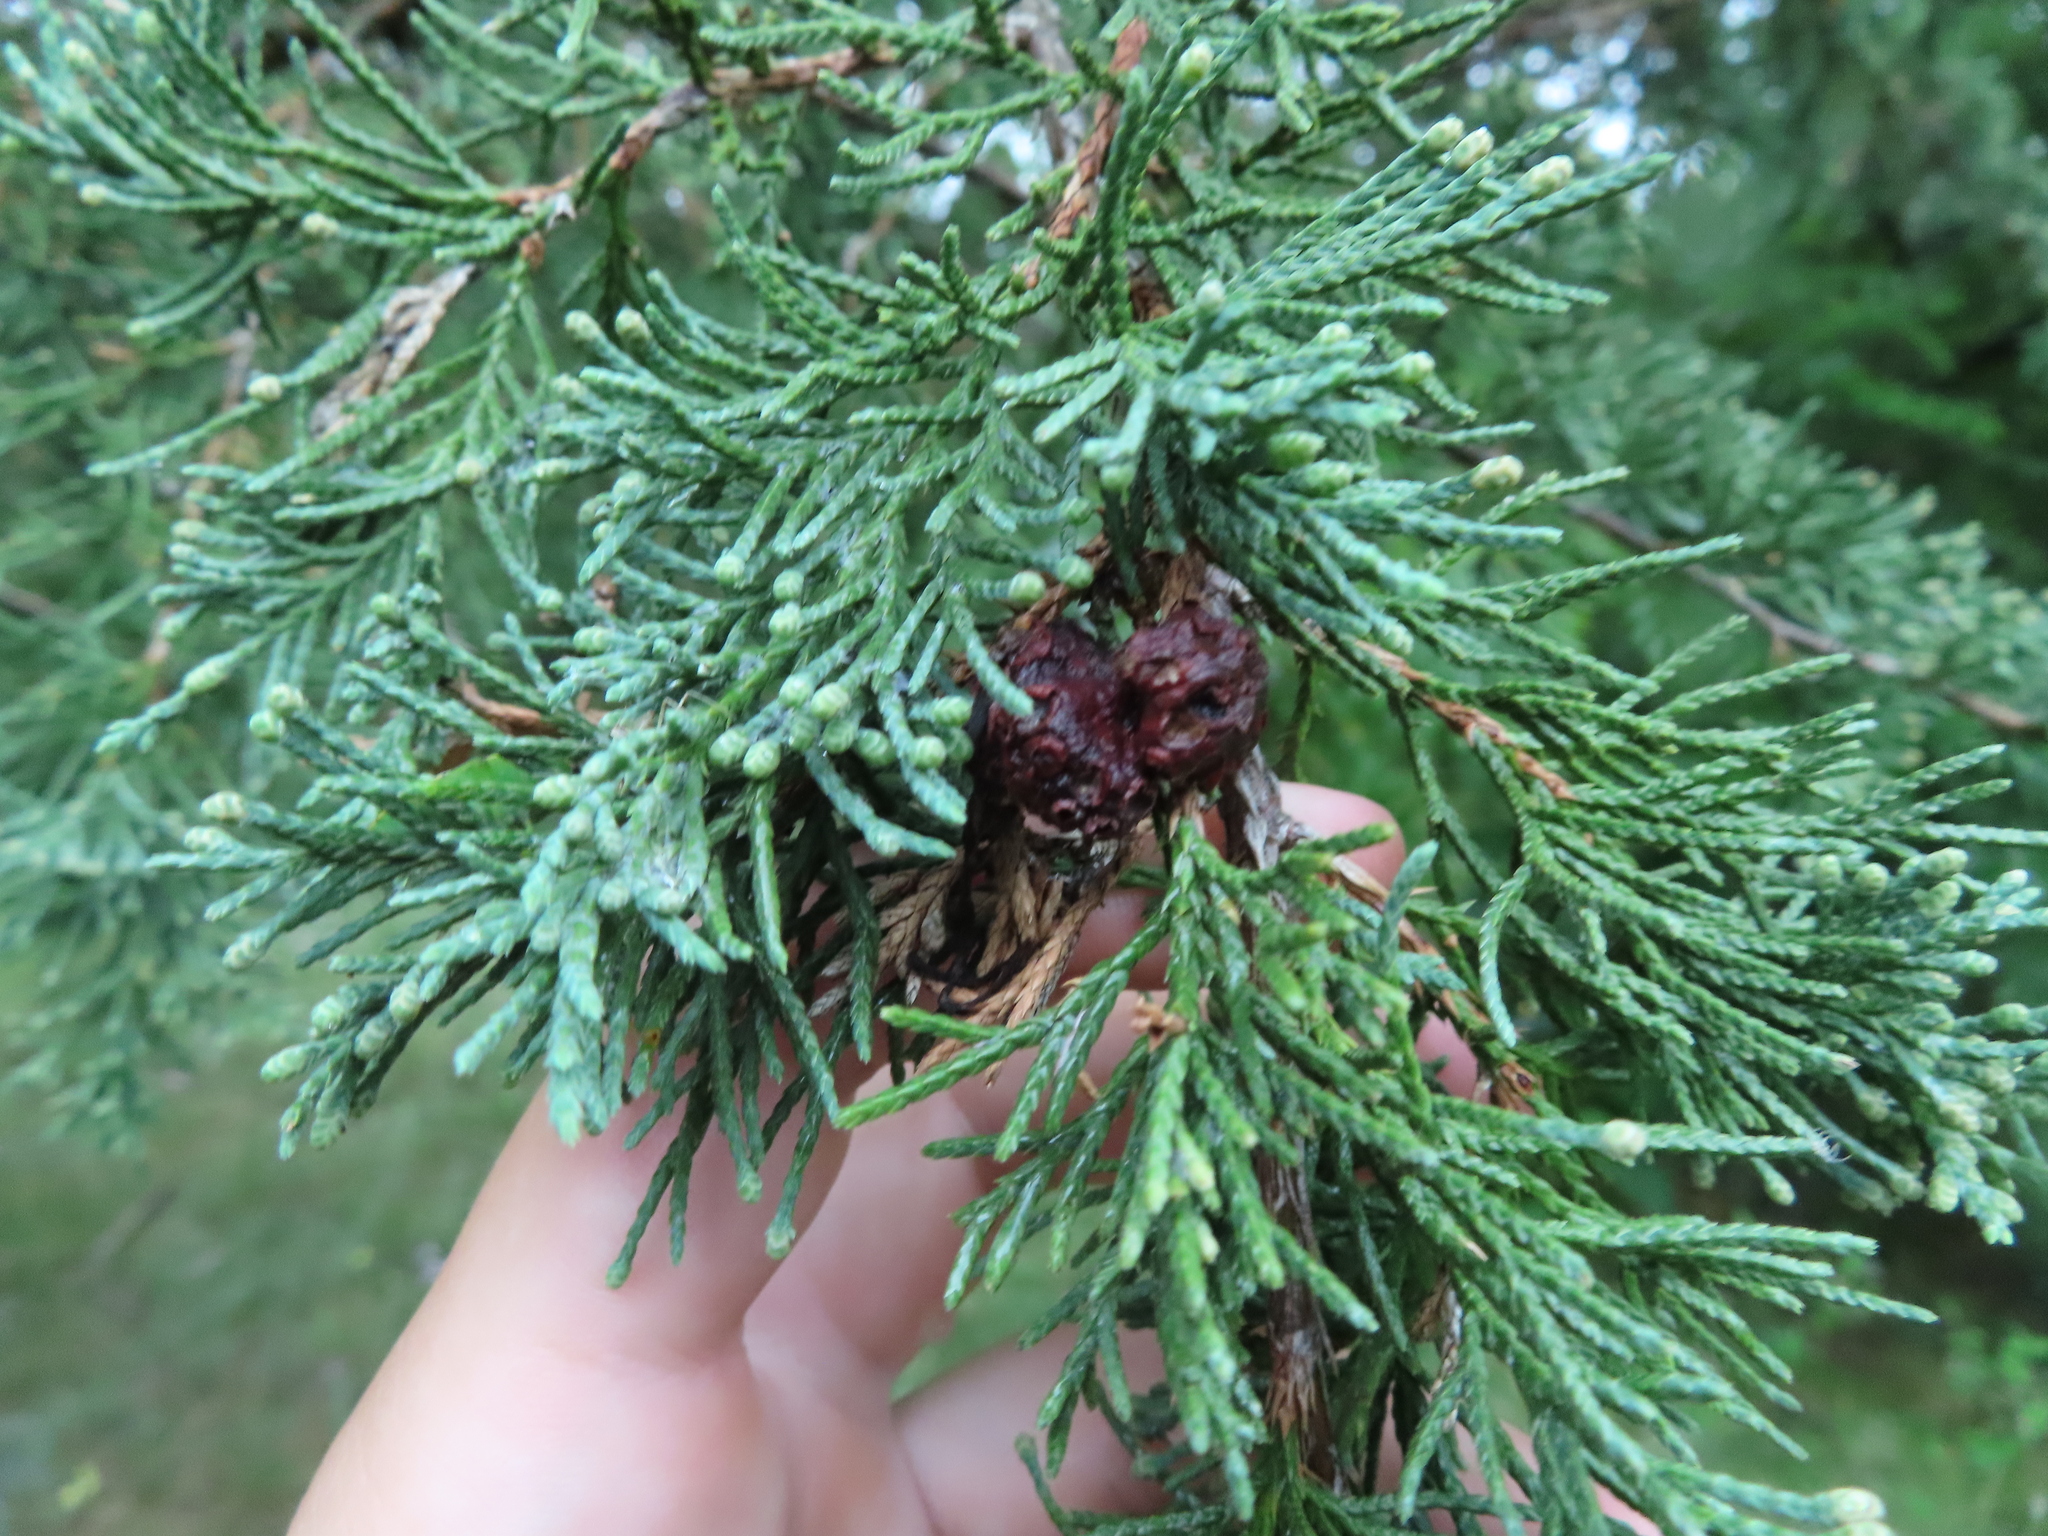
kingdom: Fungi
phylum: Basidiomycota
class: Pucciniomycetes
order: Pucciniales
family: Gymnosporangiaceae
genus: Gymnosporangium
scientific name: Gymnosporangium juniperi-virginianae
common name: Juniper-apple rust
